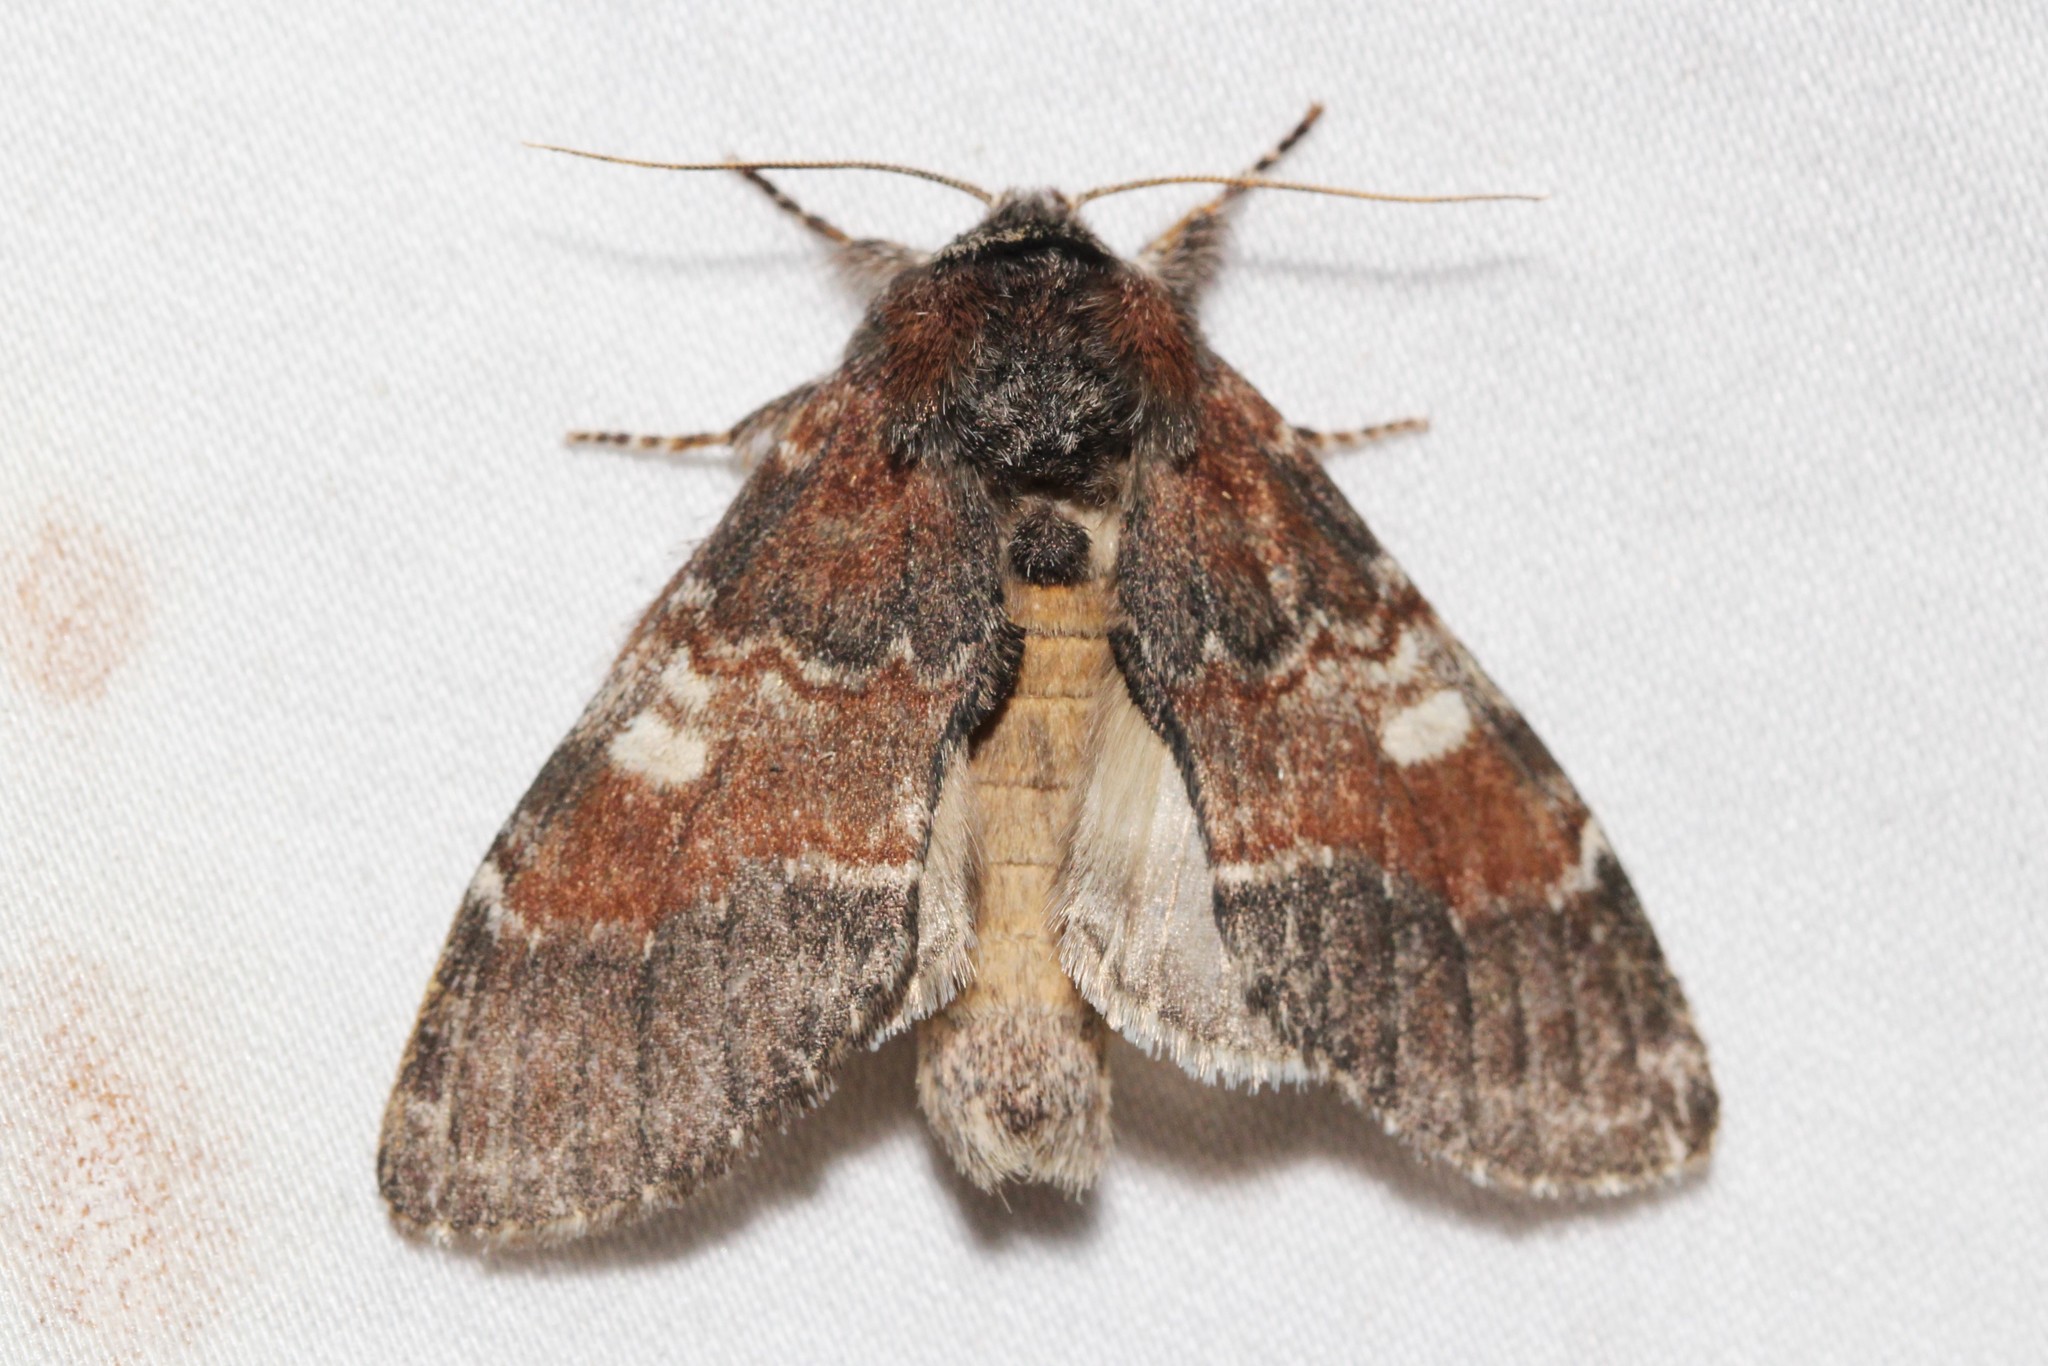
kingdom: Animalia
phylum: Arthropoda
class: Insecta
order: Lepidoptera
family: Notodontidae
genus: Peridea
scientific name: Peridea ferruginea
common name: Chocolate prominent
